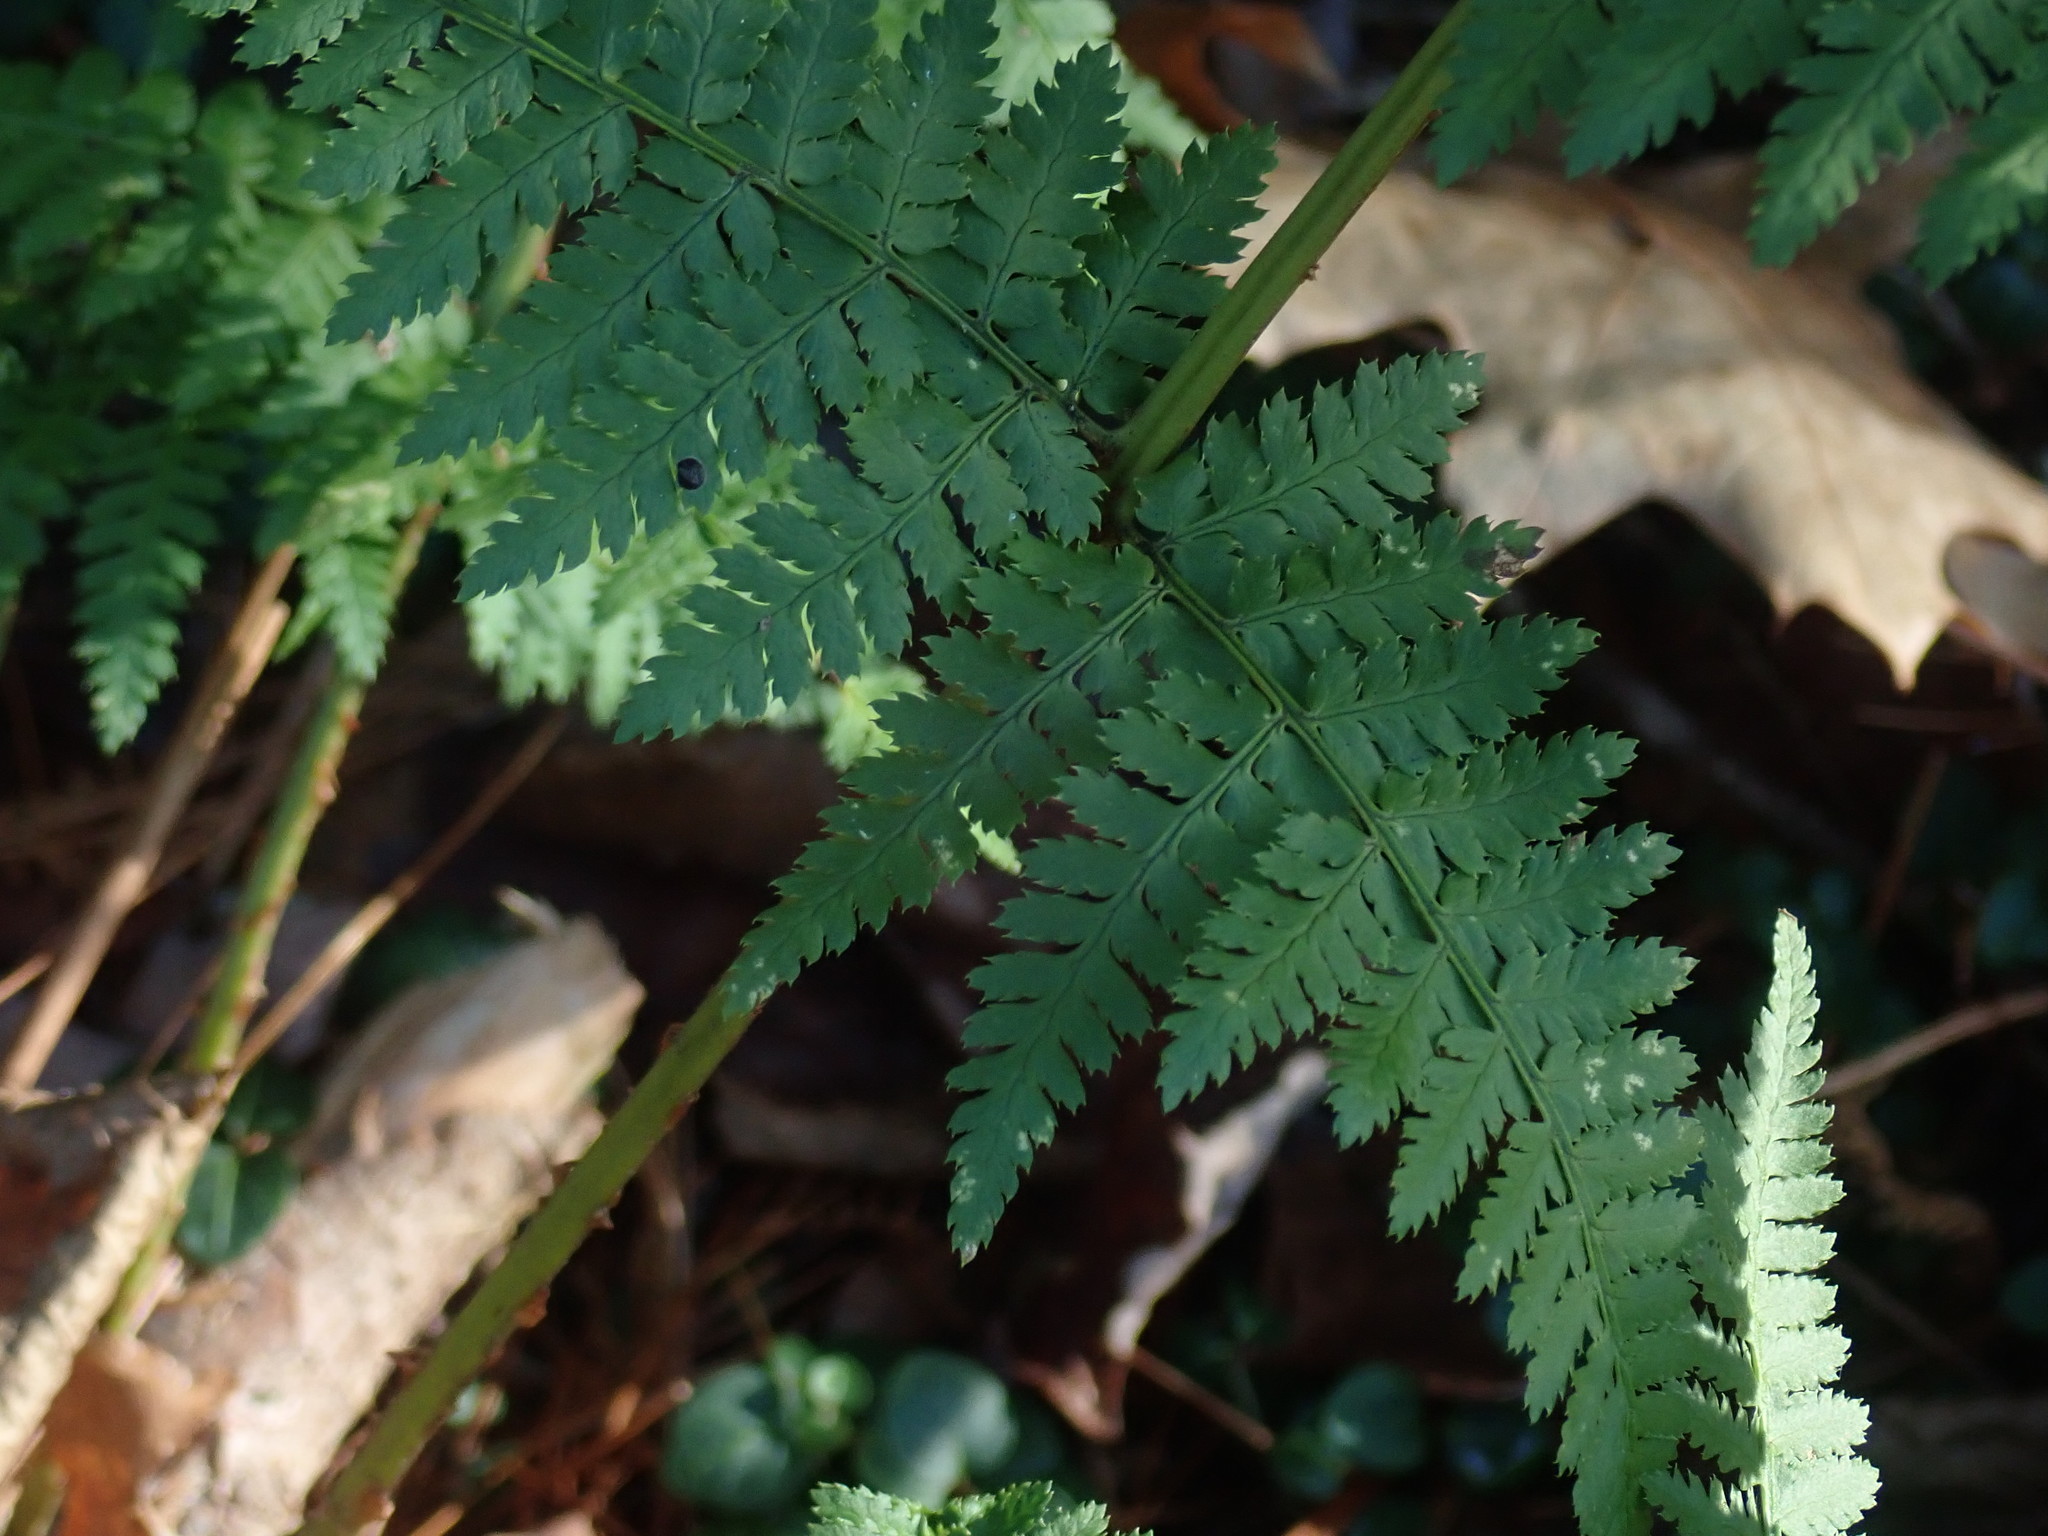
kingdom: Plantae
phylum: Tracheophyta
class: Polypodiopsida
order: Polypodiales
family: Dryopteridaceae
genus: Dryopteris
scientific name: Dryopteris intermedia
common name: Evergreen wood fern
